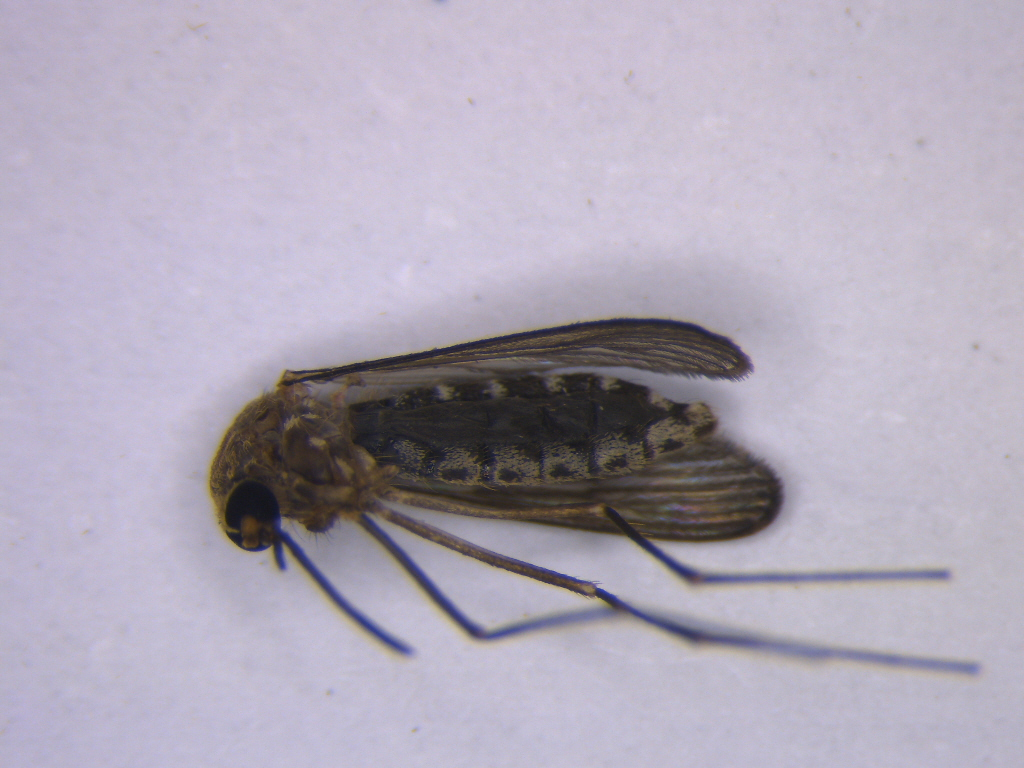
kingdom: Animalia
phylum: Arthropoda
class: Insecta
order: Diptera
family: Culicidae
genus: Culex
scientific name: Culex pervigilans
